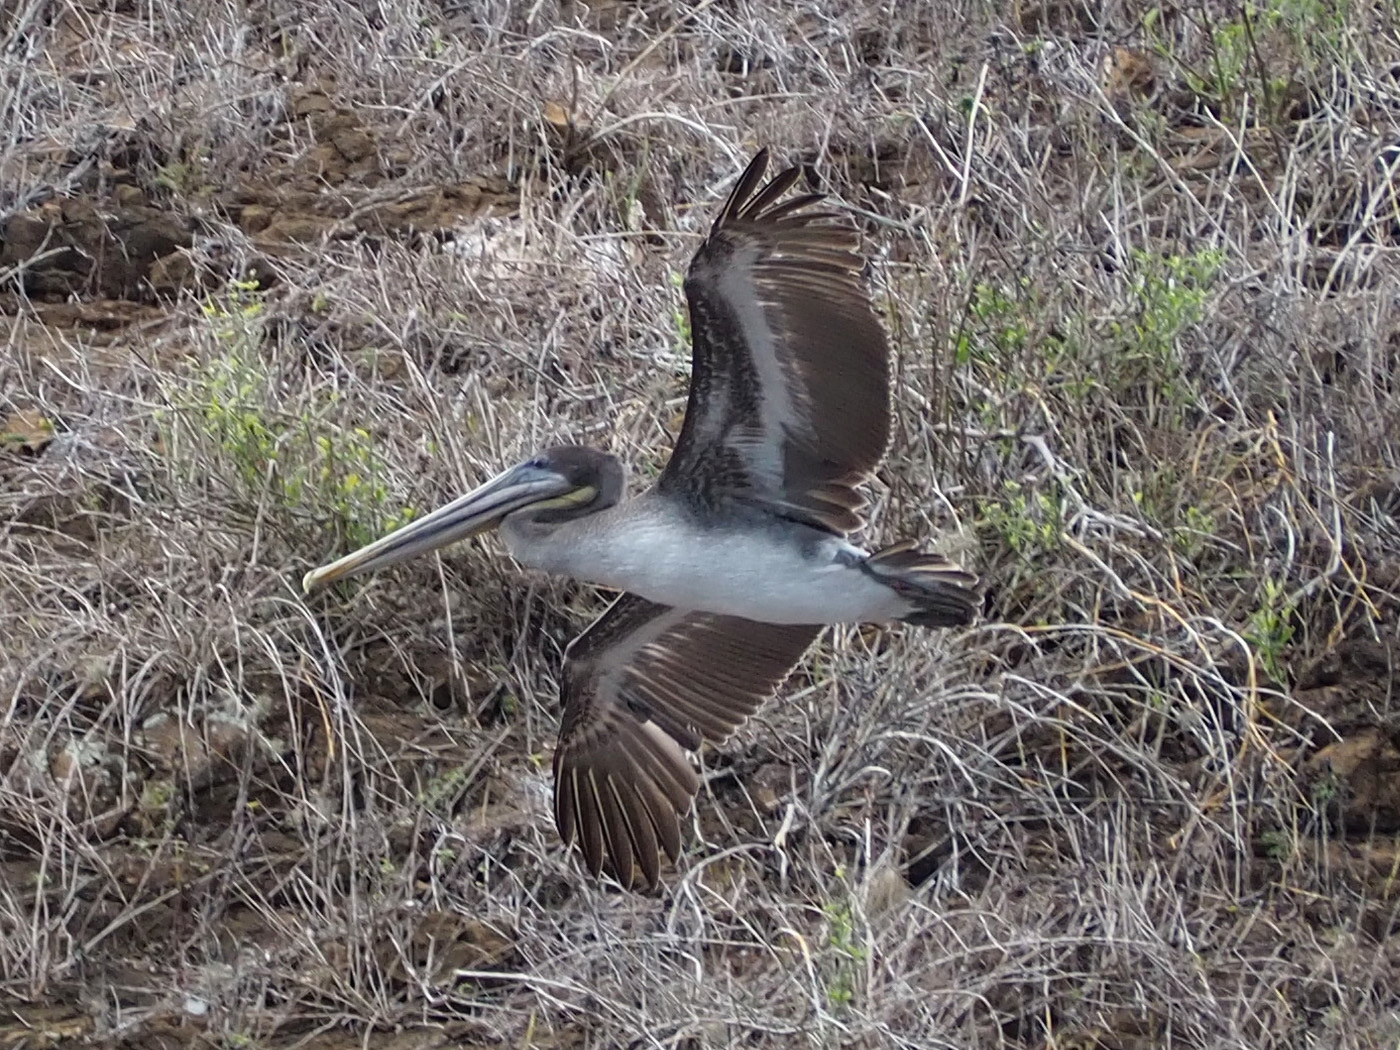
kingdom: Animalia
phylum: Chordata
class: Aves
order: Pelecaniformes
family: Pelecanidae
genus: Pelecanus
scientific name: Pelecanus occidentalis
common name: Brown pelican
